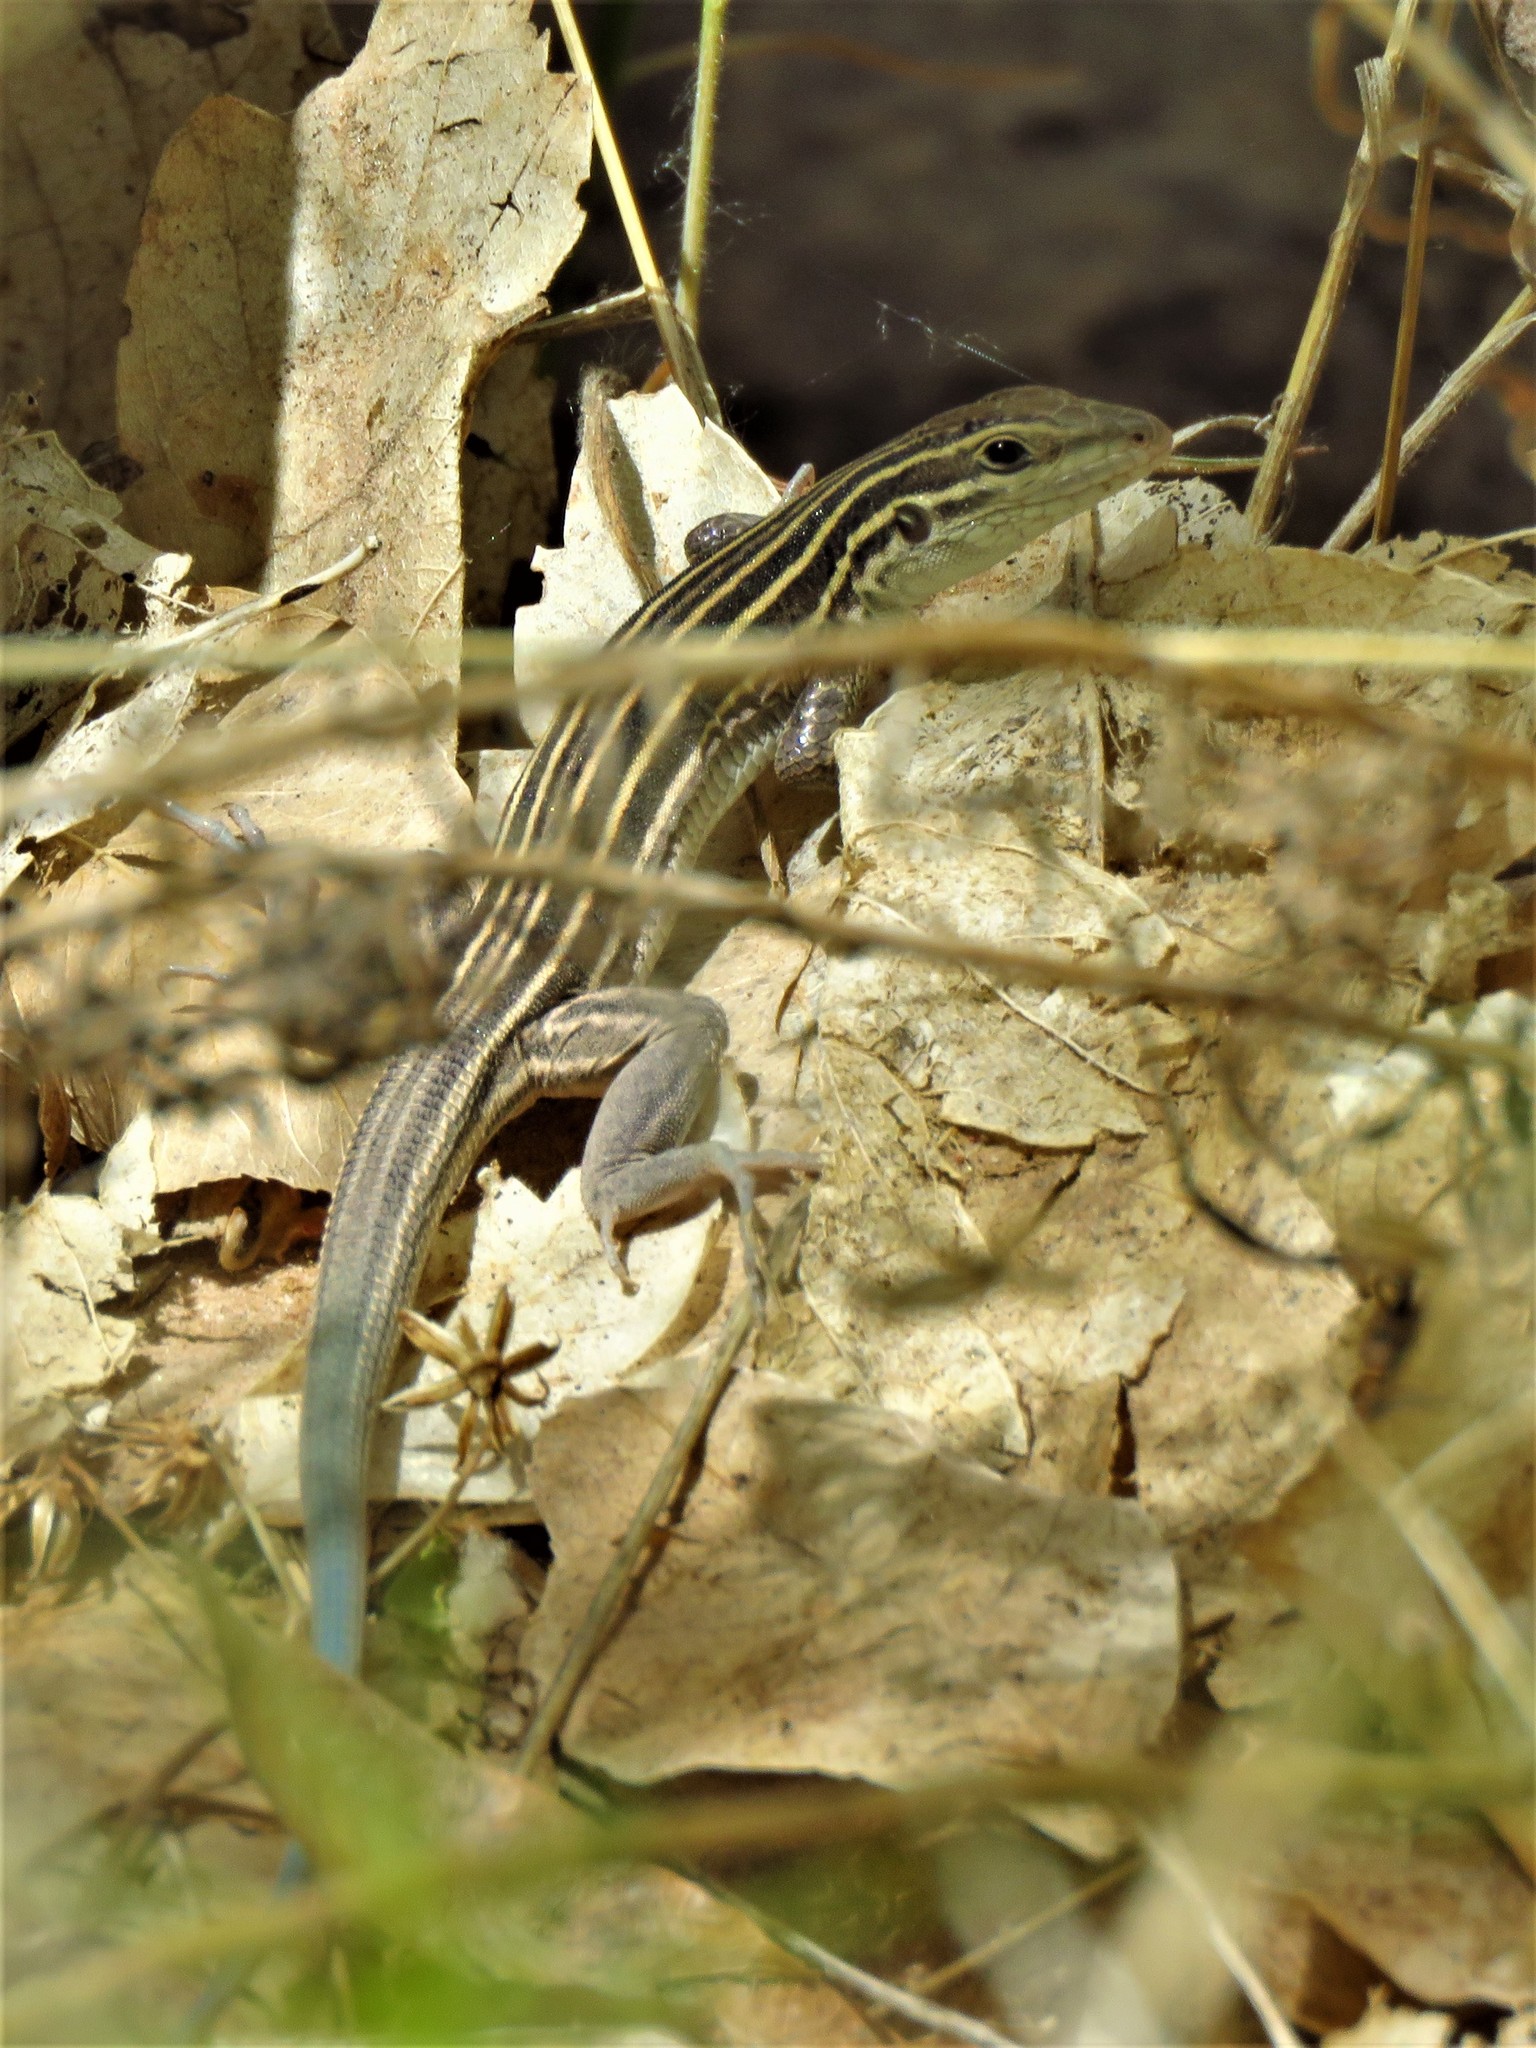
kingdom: Animalia
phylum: Chordata
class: Squamata
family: Teiidae
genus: Aspidoscelis
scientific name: Aspidoscelis velox
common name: Plateau striped whiptail
